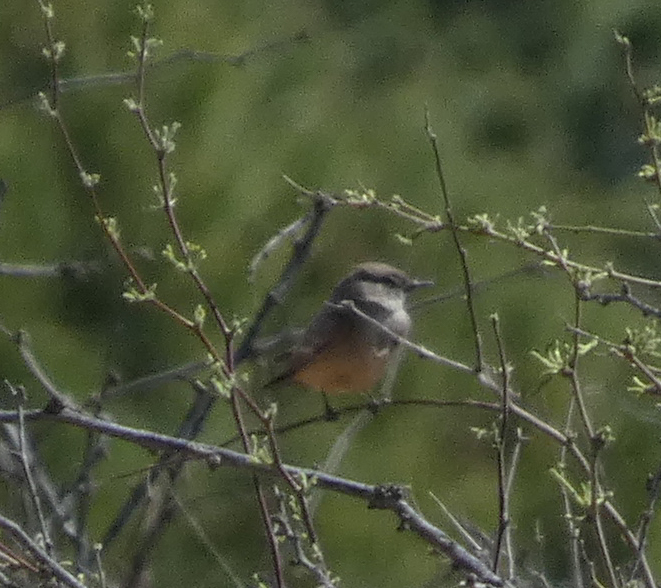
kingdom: Animalia
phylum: Chordata
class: Aves
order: Passeriformes
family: Tyrannidae
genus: Sayornis
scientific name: Sayornis saya
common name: Say's phoebe
